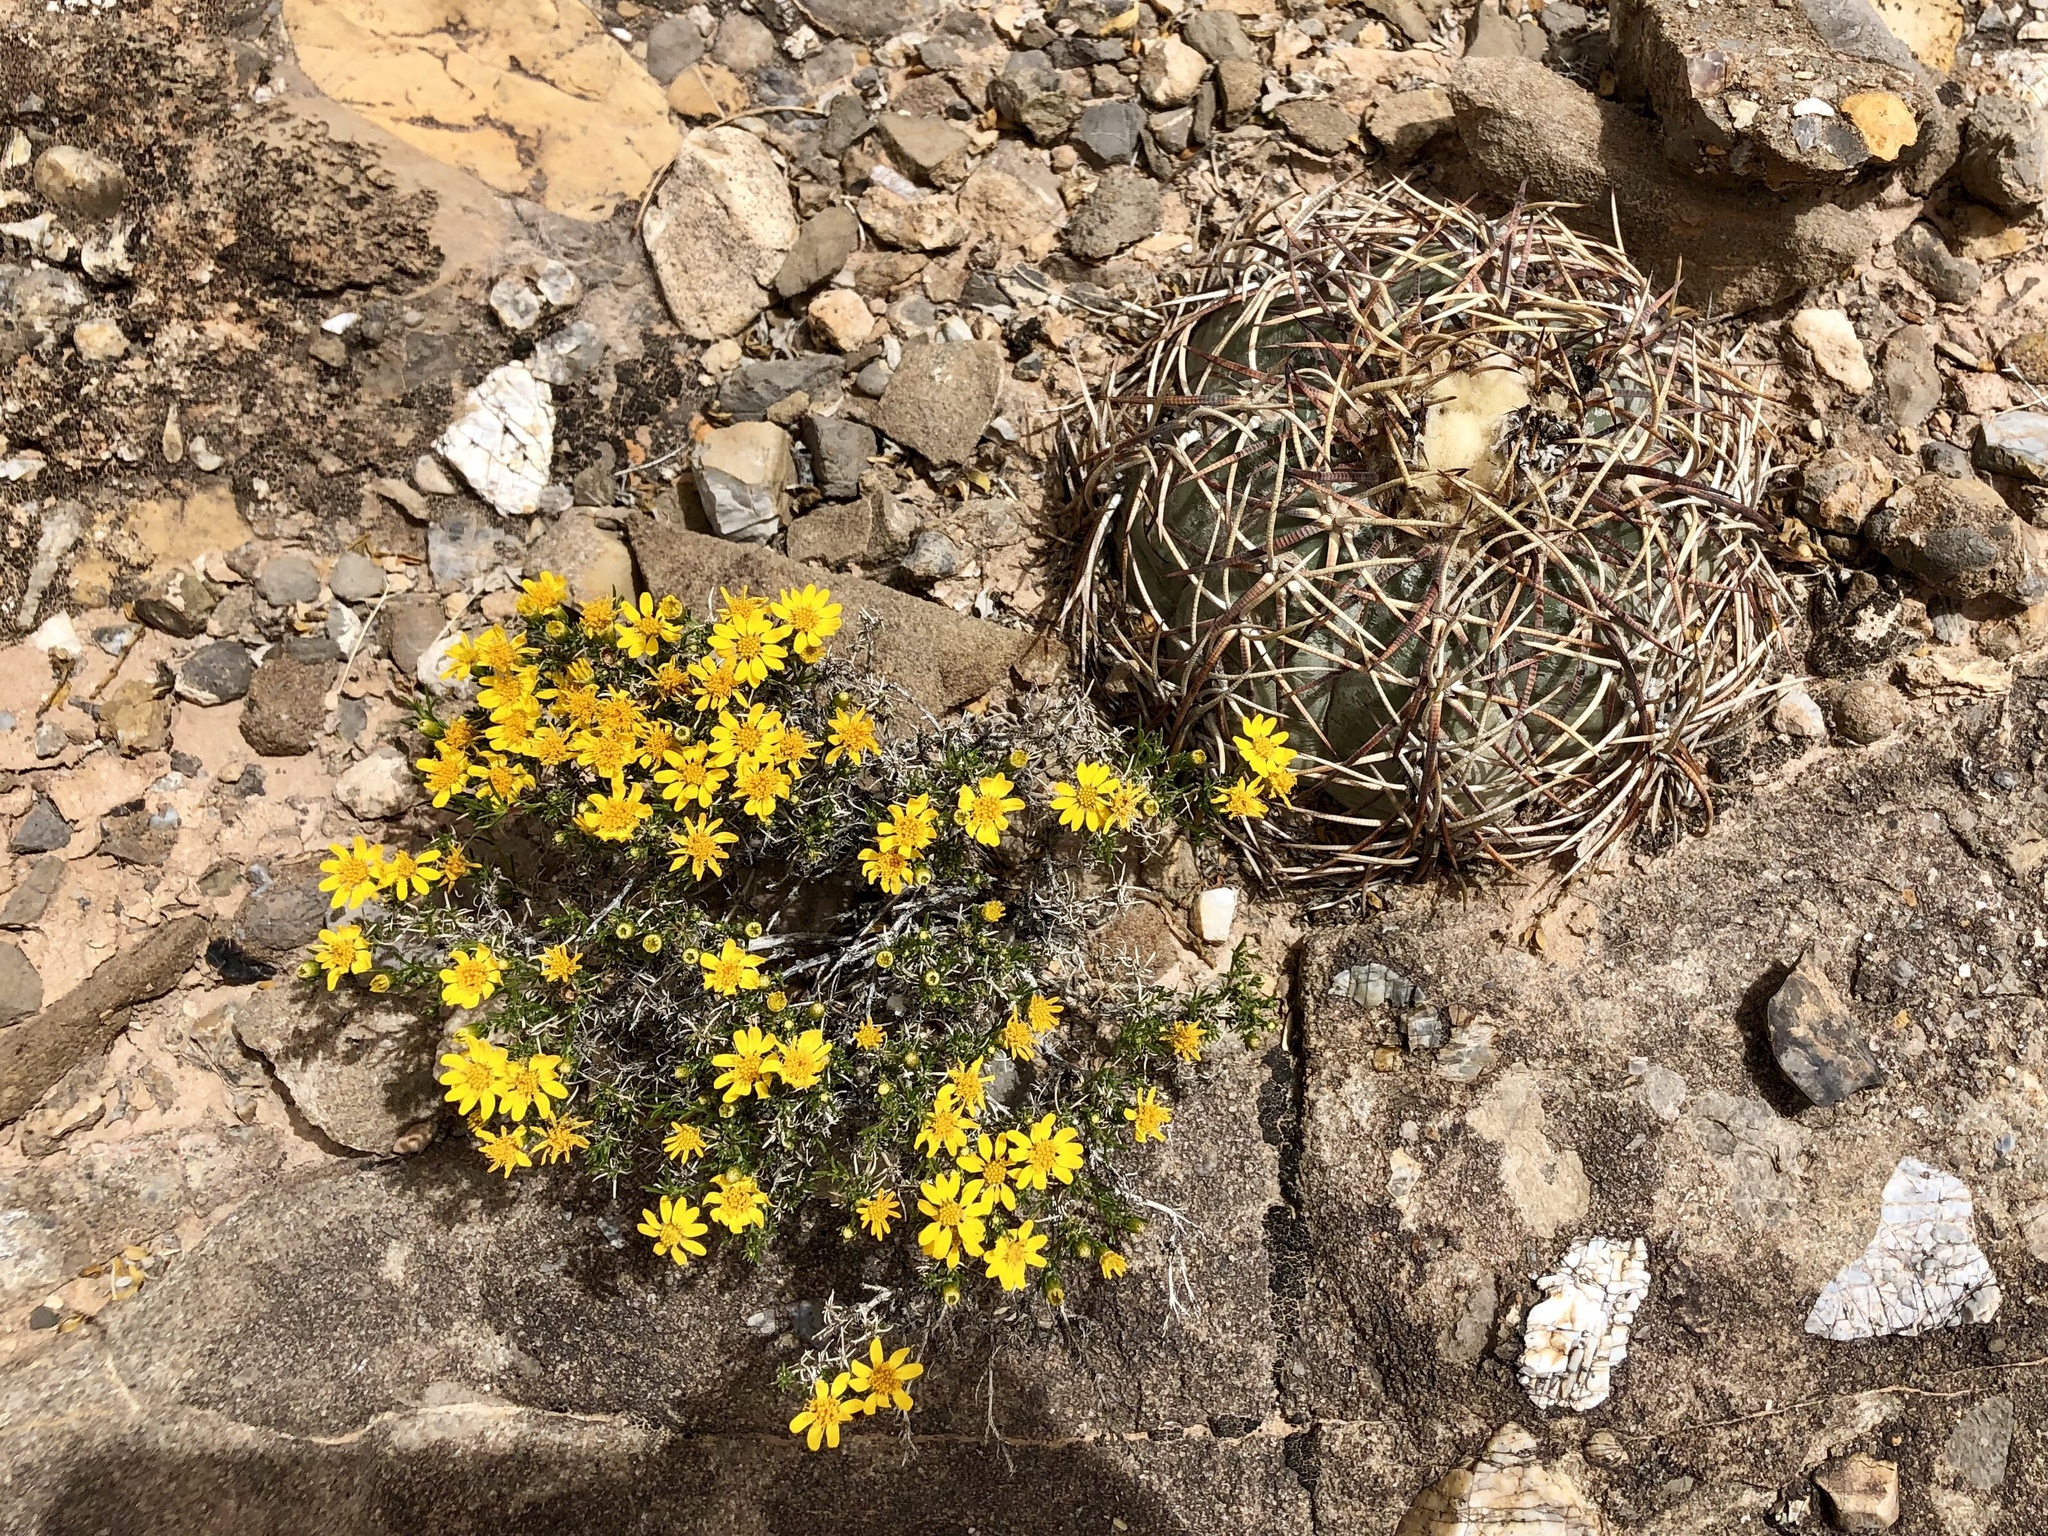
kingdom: Plantae
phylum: Tracheophyta
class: Magnoliopsida
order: Caryophyllales
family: Cactaceae
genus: Echinocactus
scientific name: Echinocactus horizonthalonius
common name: Devilshead
